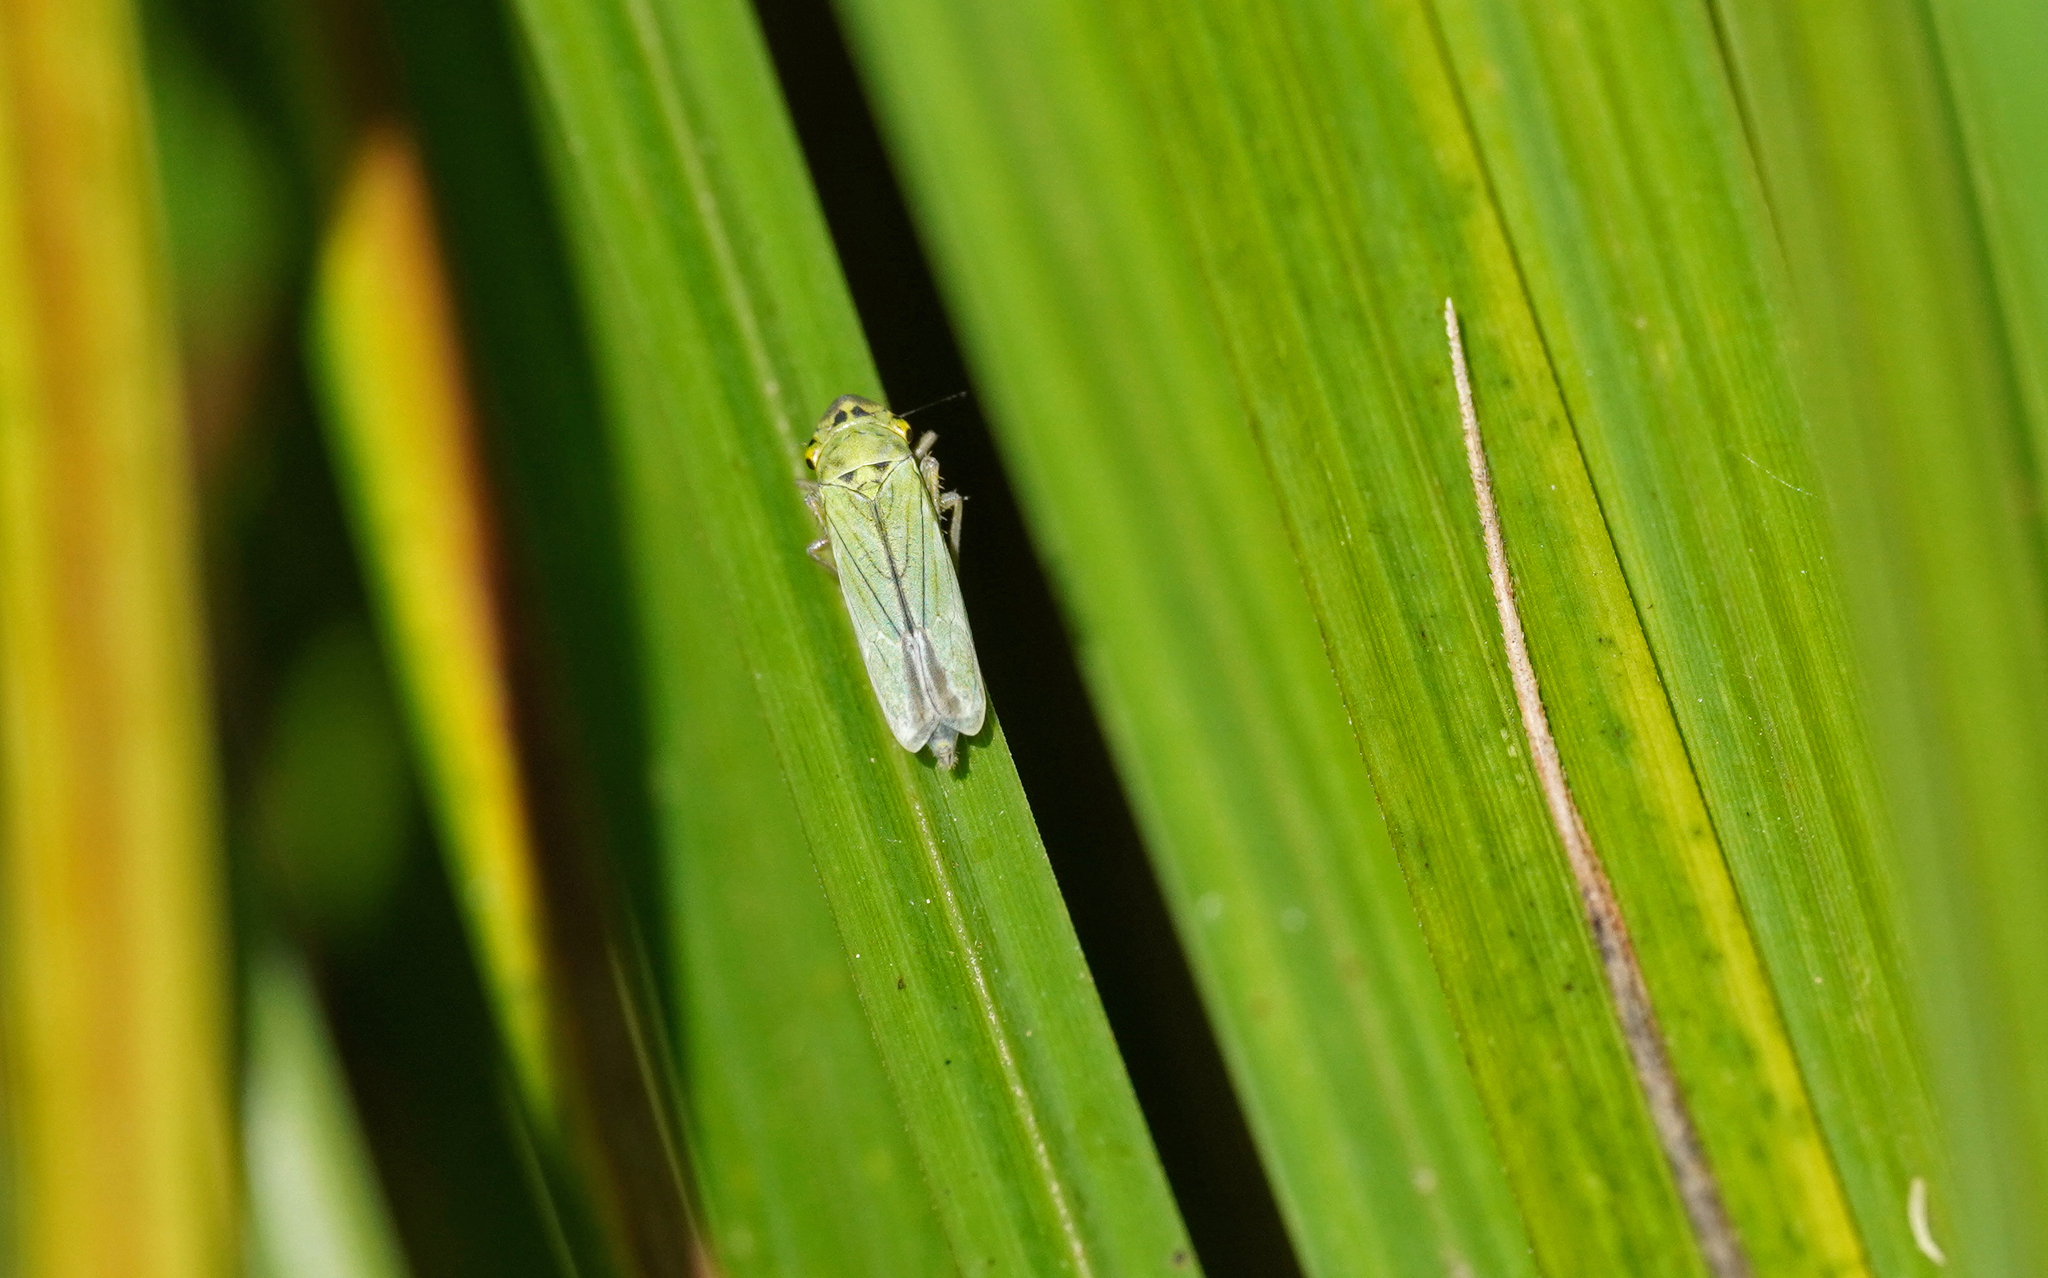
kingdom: Animalia
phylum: Arthropoda
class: Insecta
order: Hemiptera
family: Cicadellidae
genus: Cicadella
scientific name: Cicadella viridis
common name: Leafhopper
